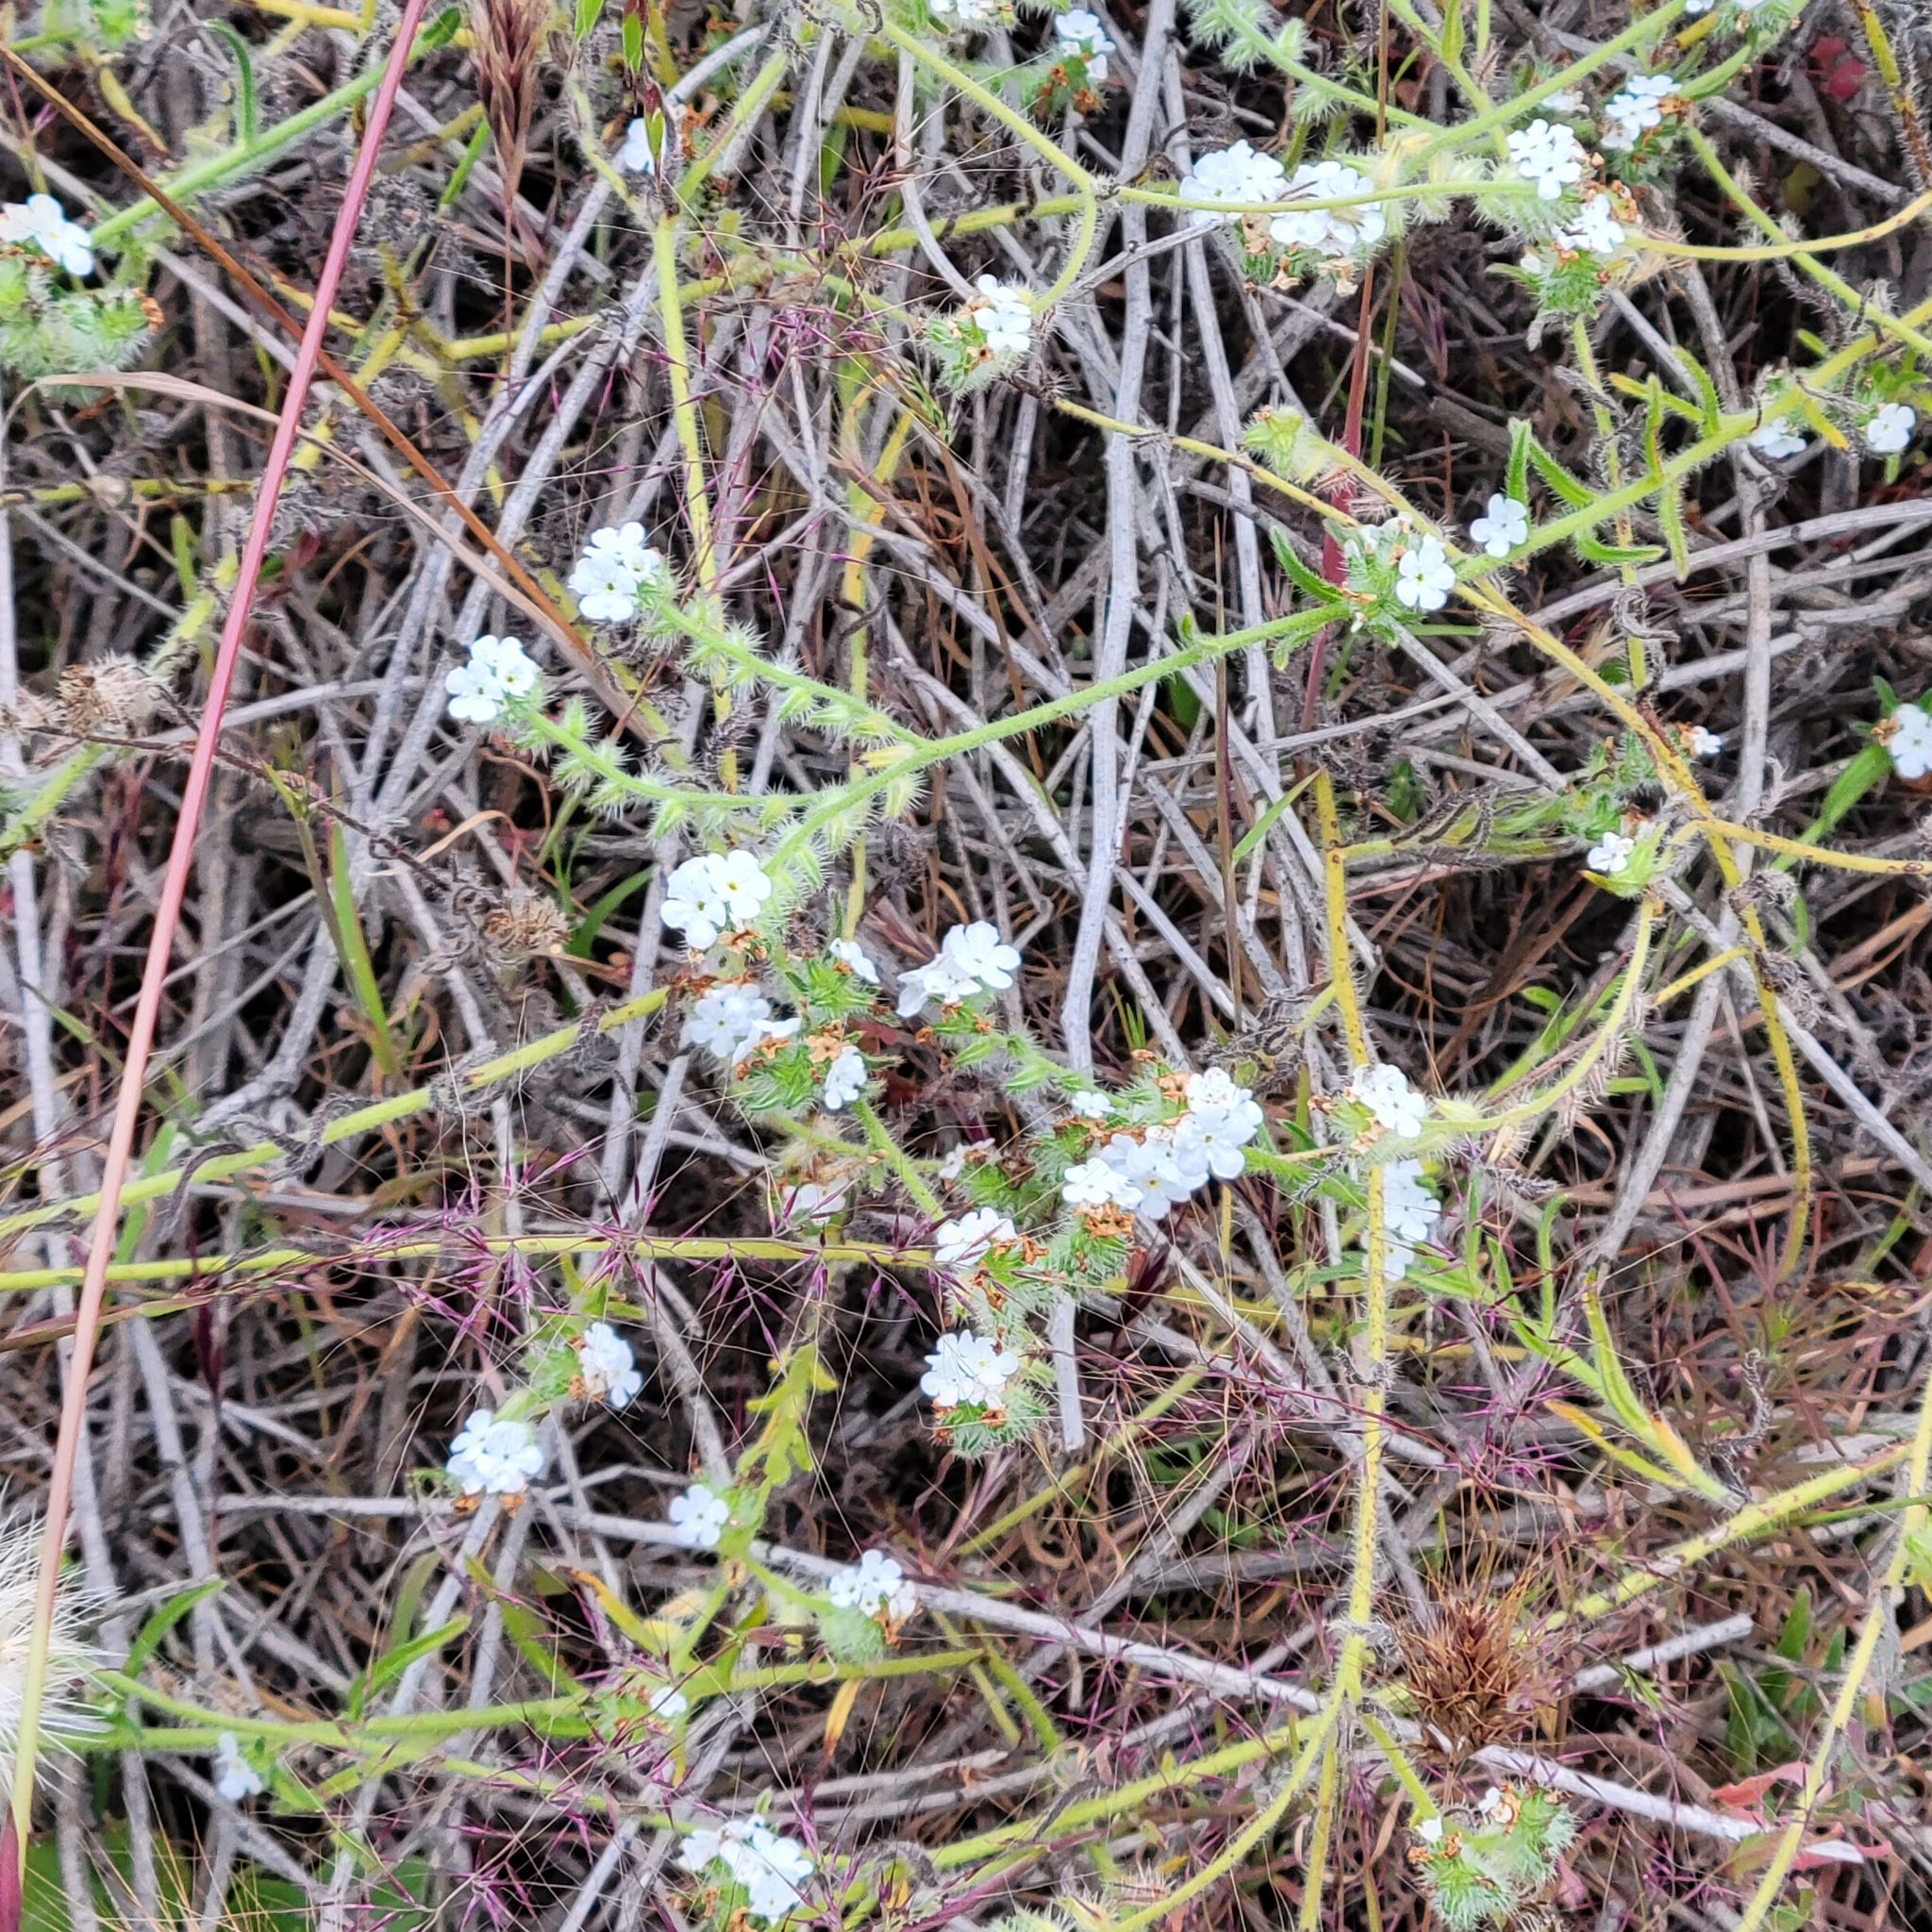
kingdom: Plantae
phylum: Tracheophyta
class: Magnoliopsida
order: Boraginales
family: Boraginaceae
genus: Cryptantha
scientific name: Cryptantha intermedia
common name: Clearwater cryptantha
